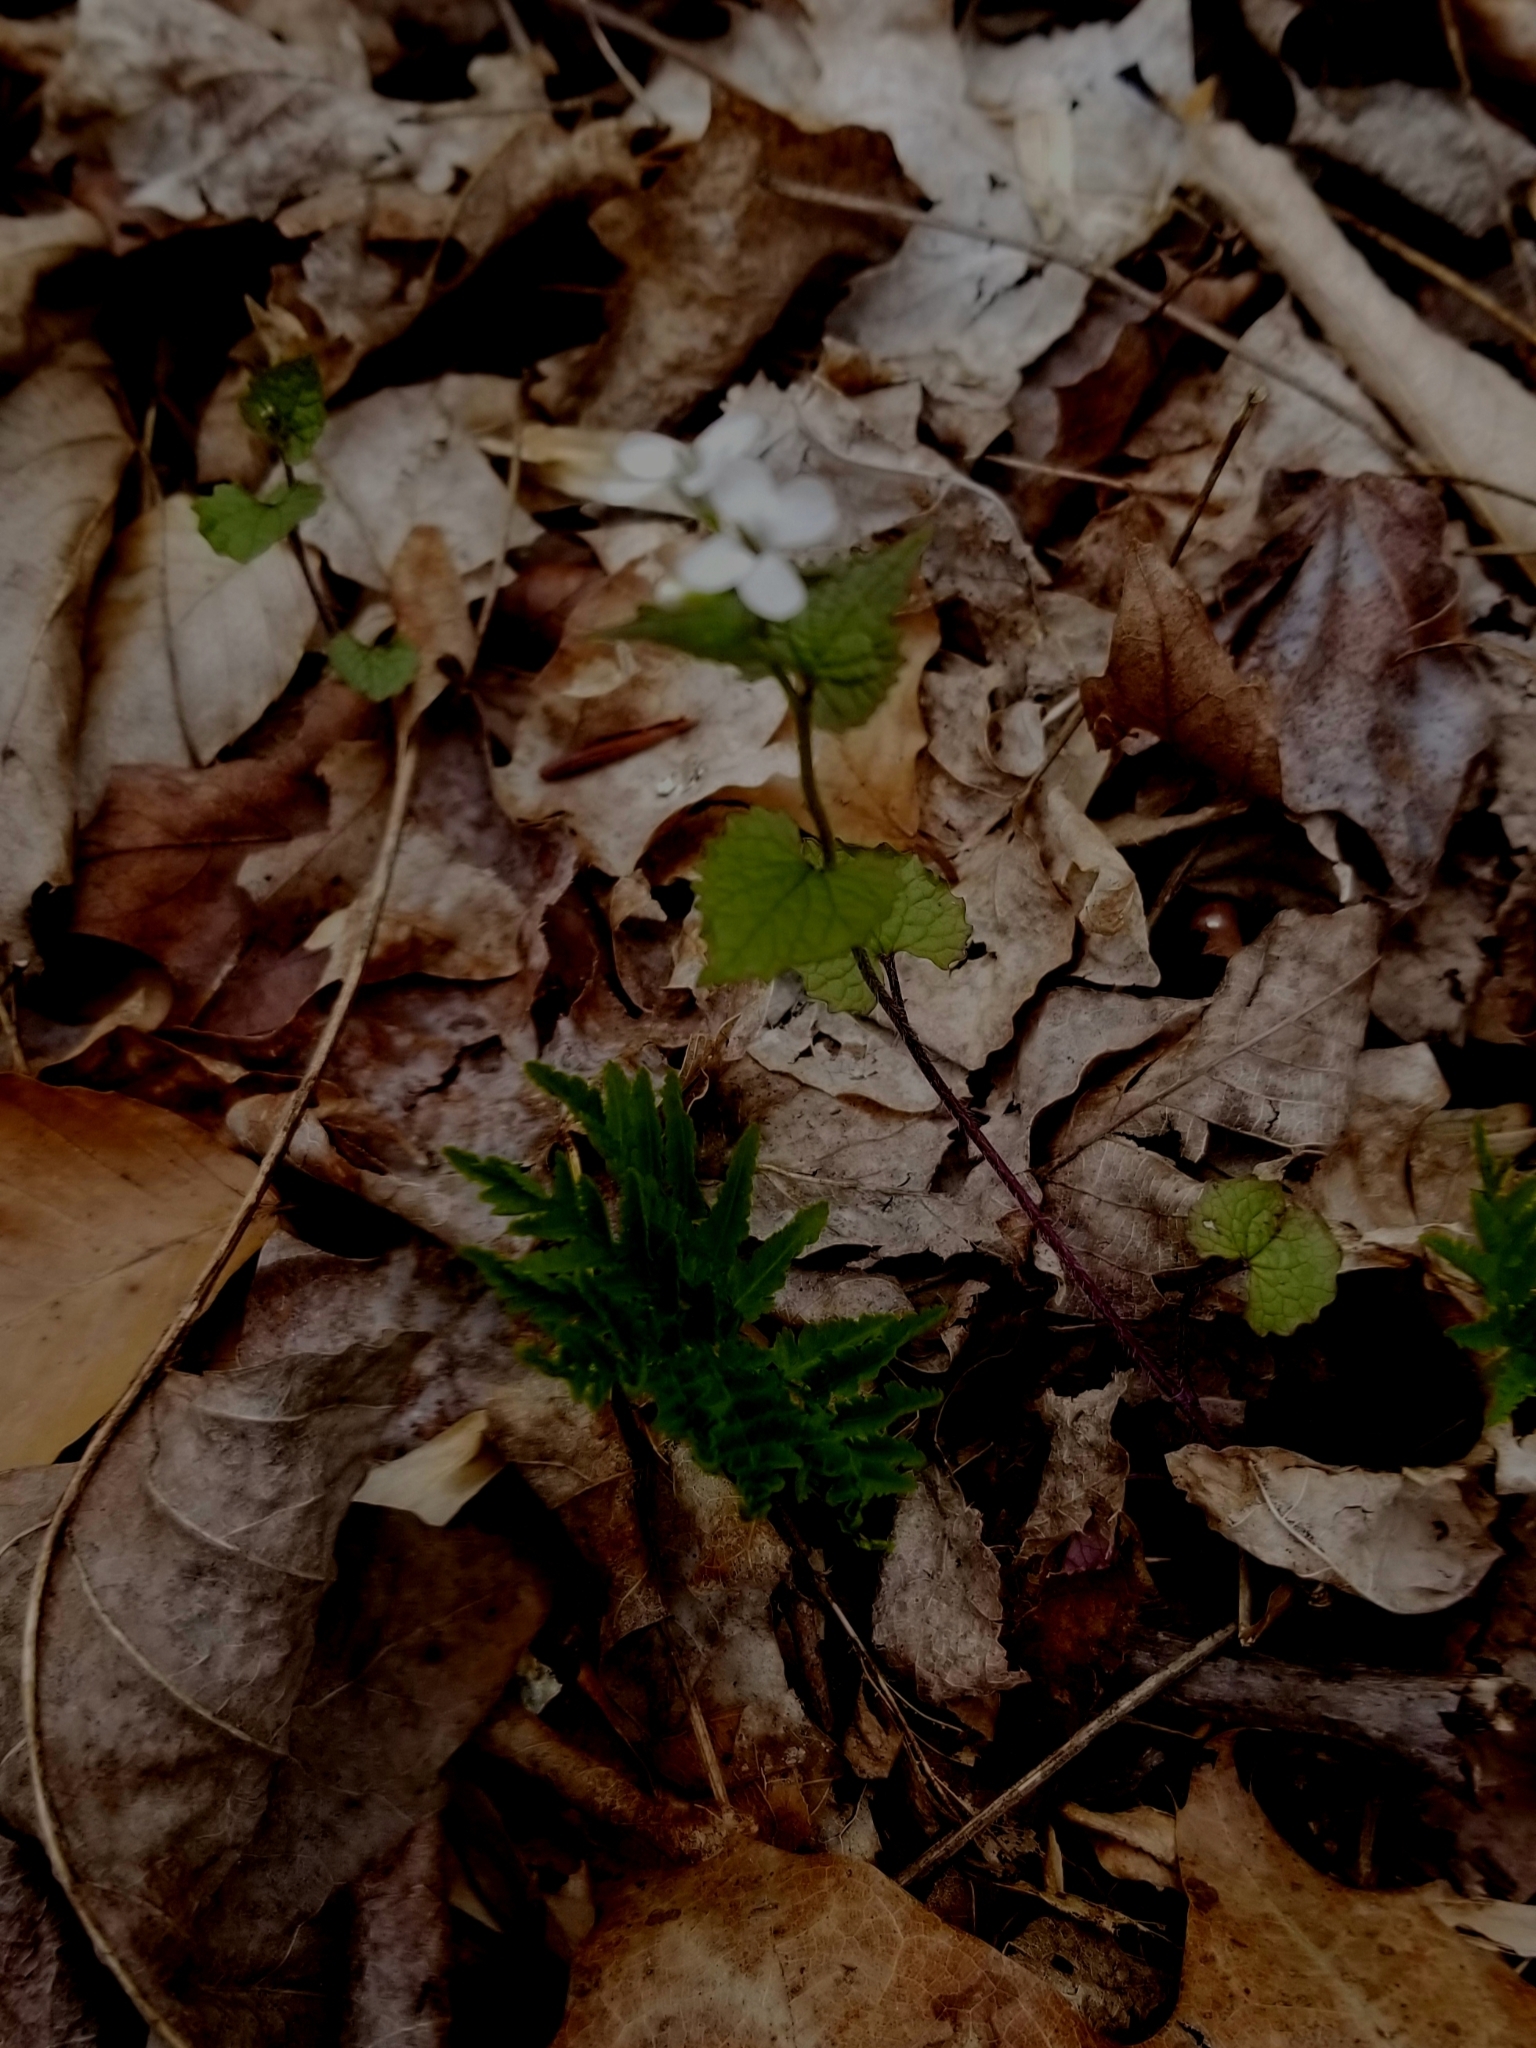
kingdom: Plantae
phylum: Tracheophyta
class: Magnoliopsida
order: Brassicales
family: Brassicaceae
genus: Alliaria
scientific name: Alliaria petiolata
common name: Garlic mustard
